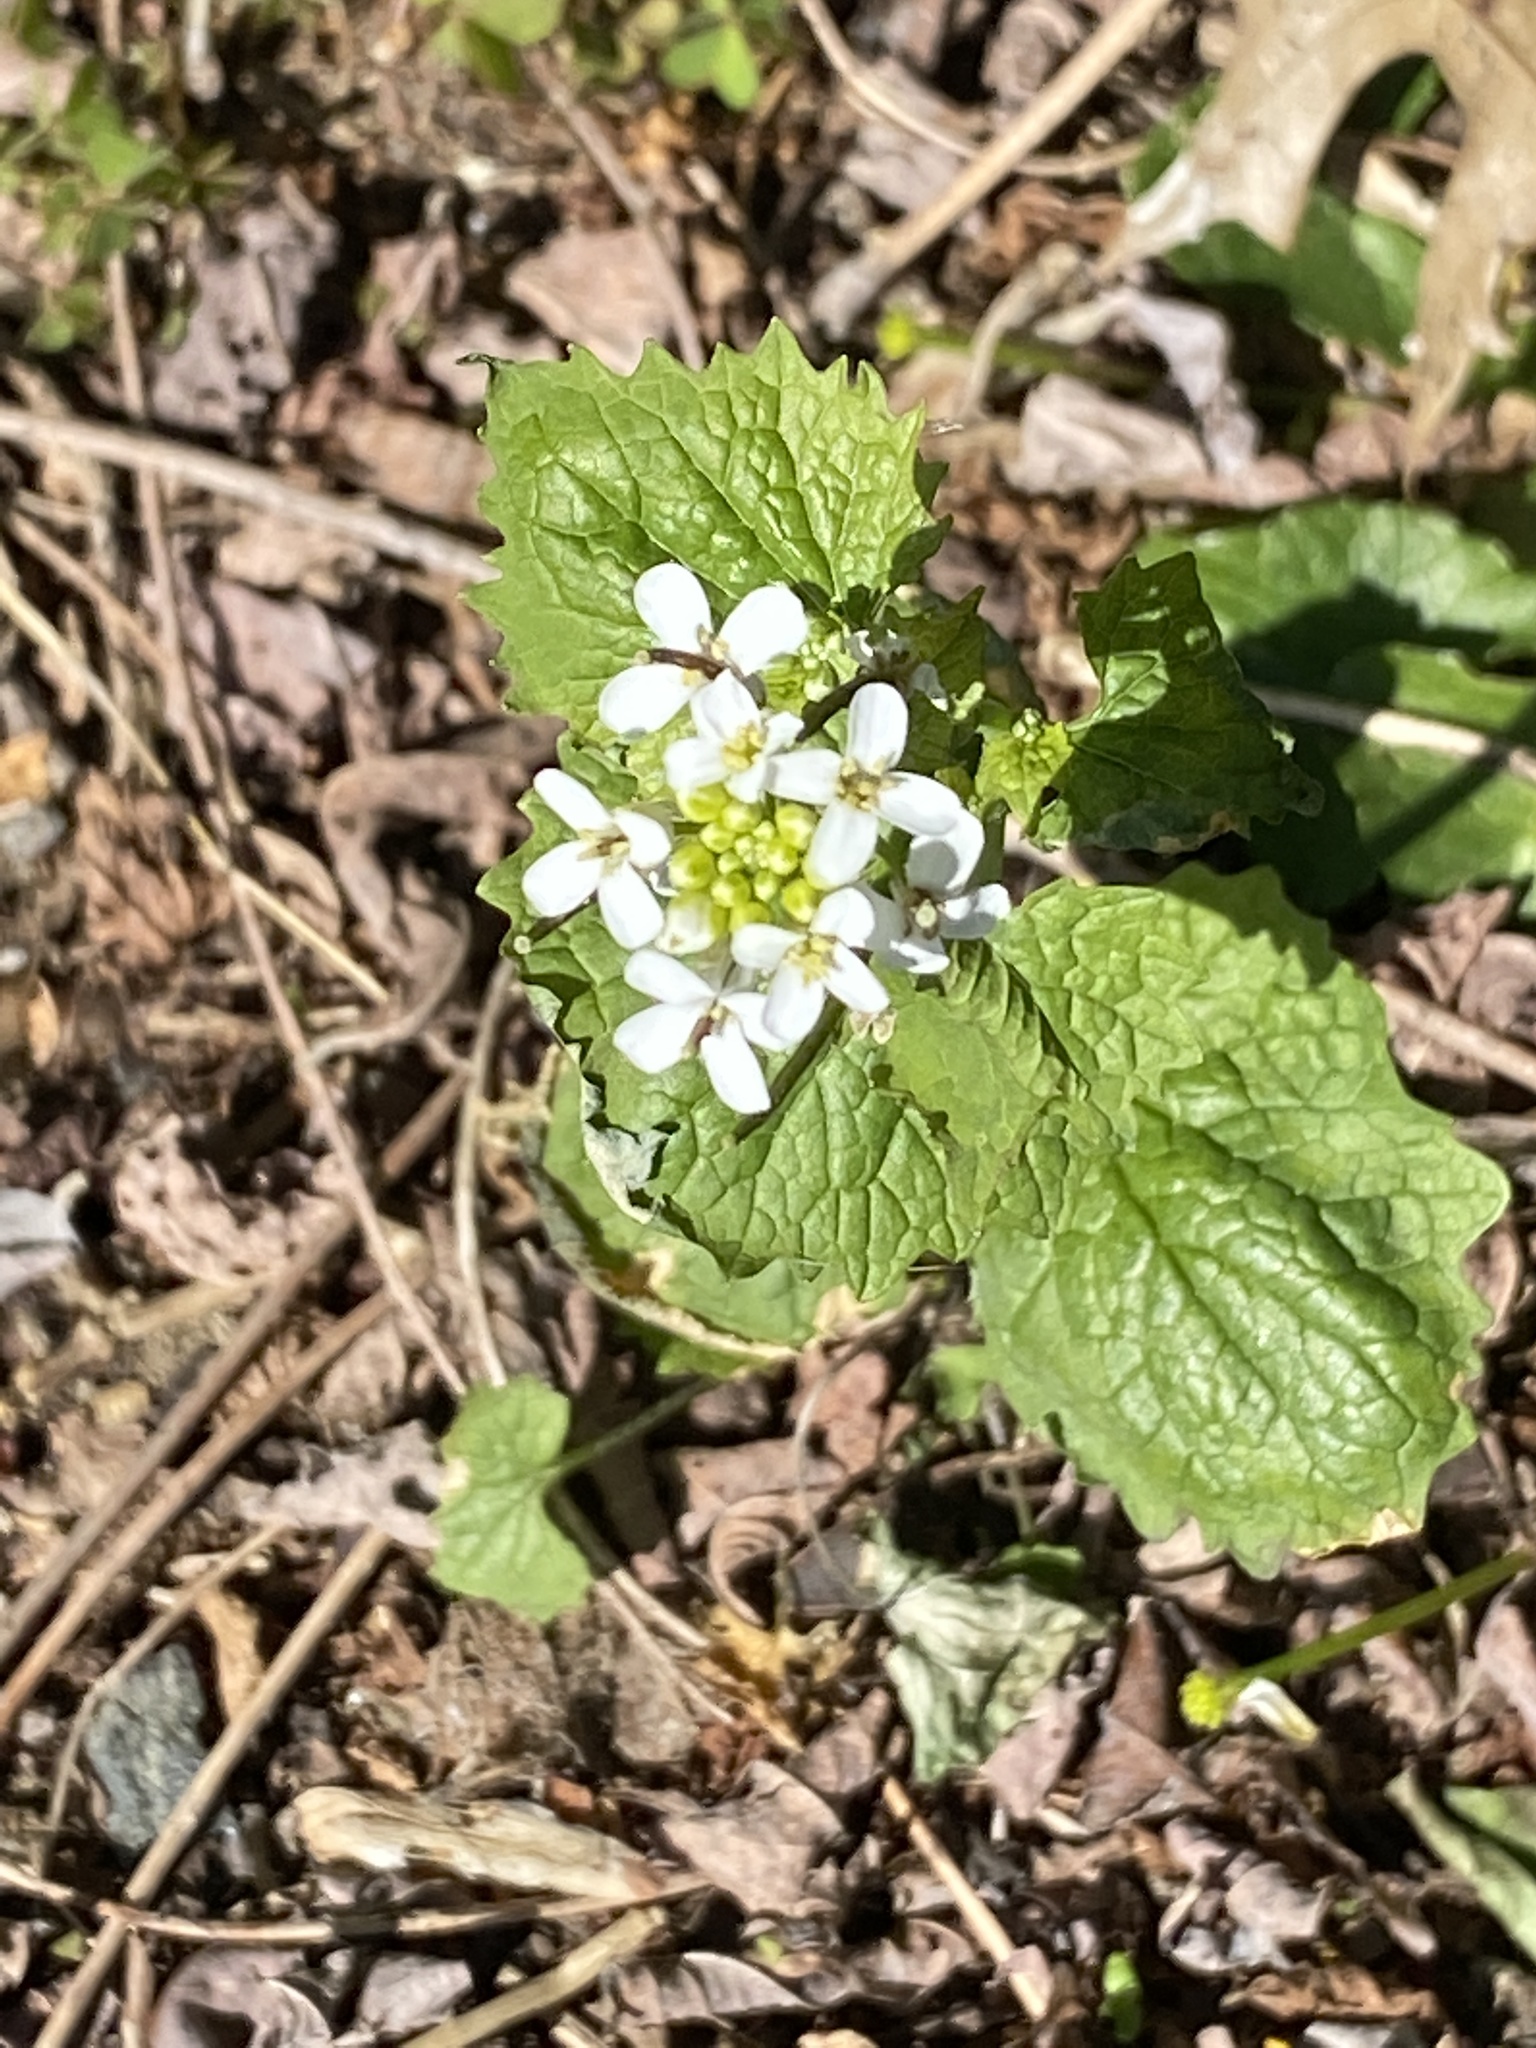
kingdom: Plantae
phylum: Tracheophyta
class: Magnoliopsida
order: Brassicales
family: Brassicaceae
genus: Alliaria
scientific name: Alliaria petiolata
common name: Garlic mustard
